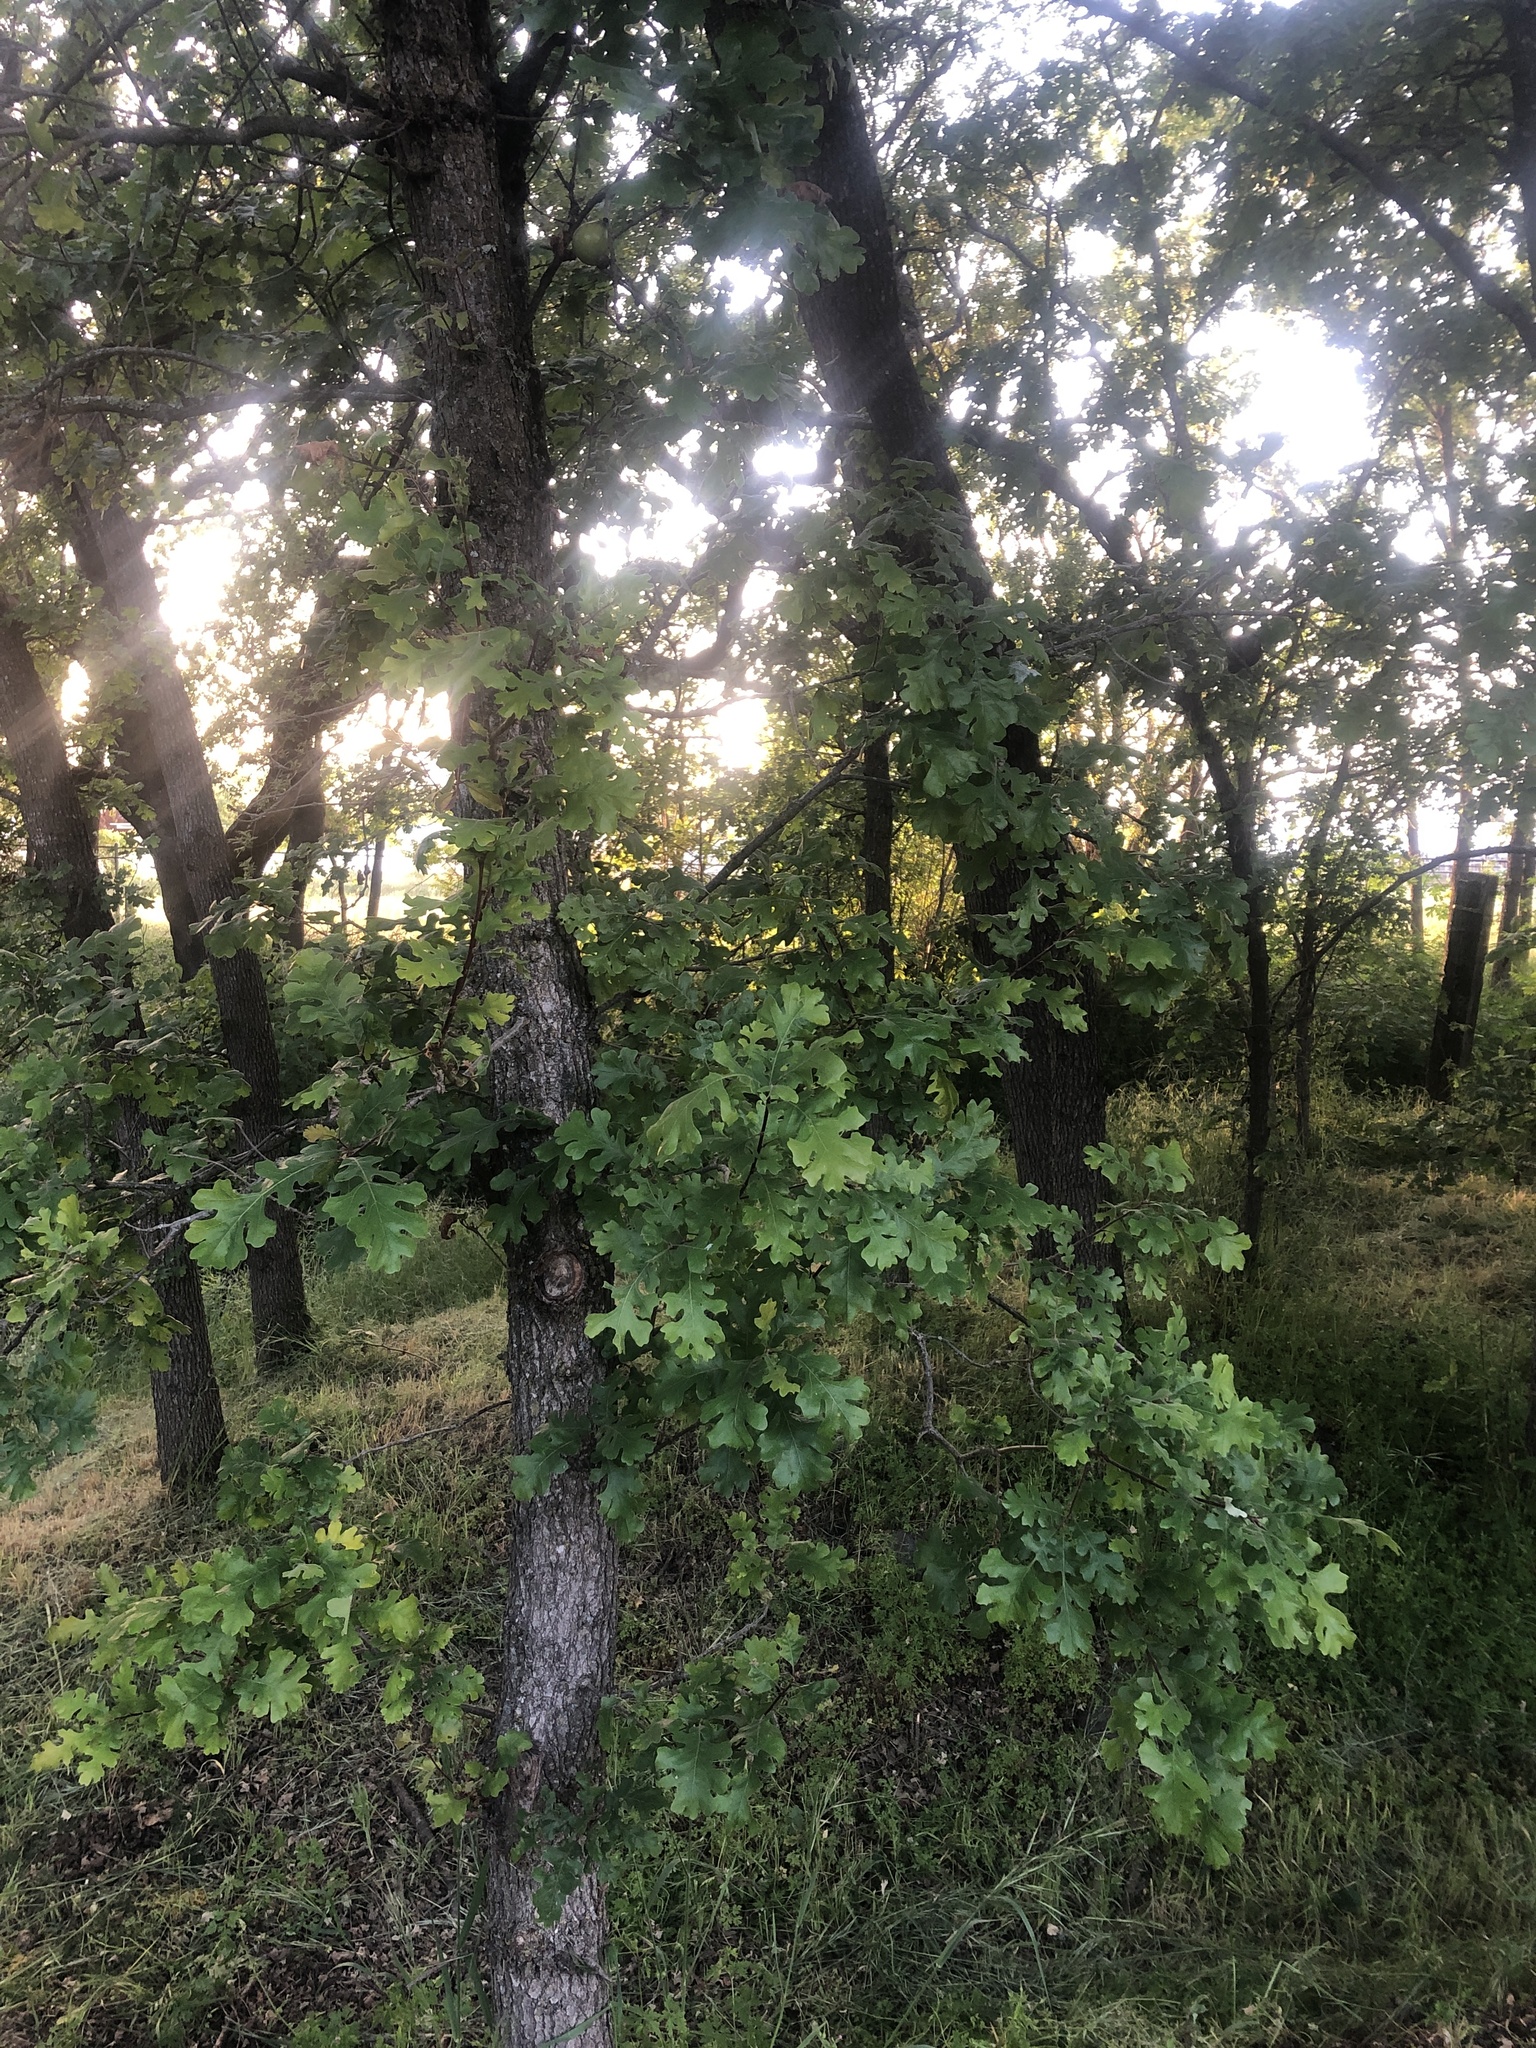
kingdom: Plantae
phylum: Tracheophyta
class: Magnoliopsida
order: Fagales
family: Fagaceae
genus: Quercus
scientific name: Quercus lobata
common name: Valley oak
